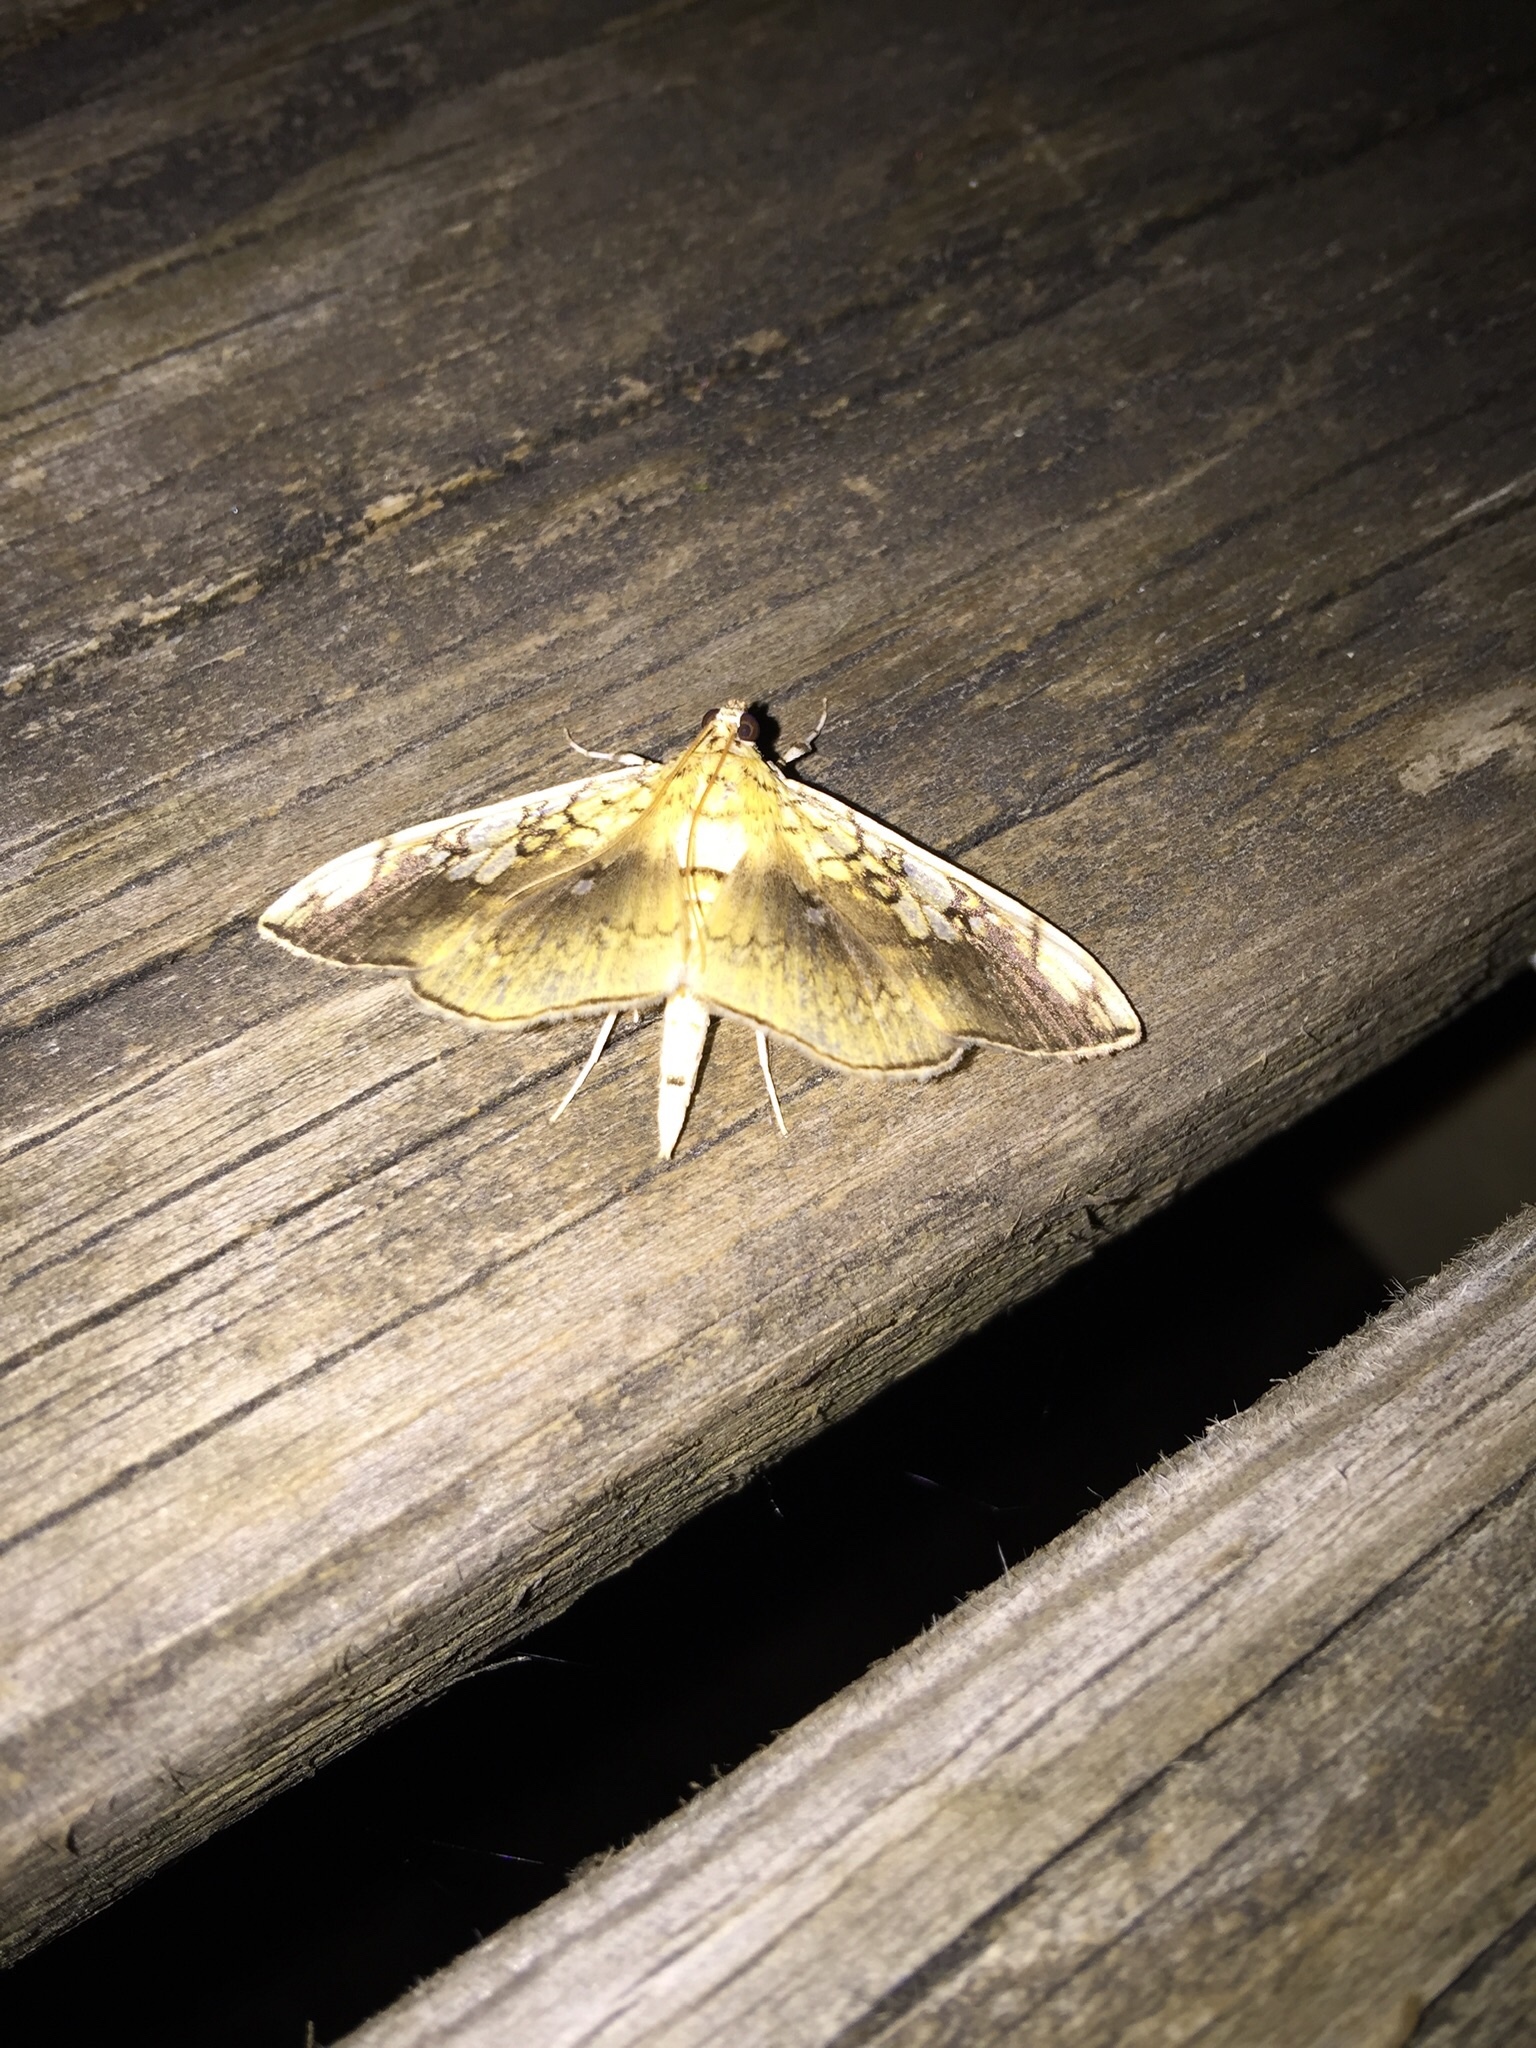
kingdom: Animalia
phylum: Arthropoda
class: Insecta
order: Lepidoptera
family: Crambidae
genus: Pantographa
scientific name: Pantographa limata
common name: Basswood leafroller moth
